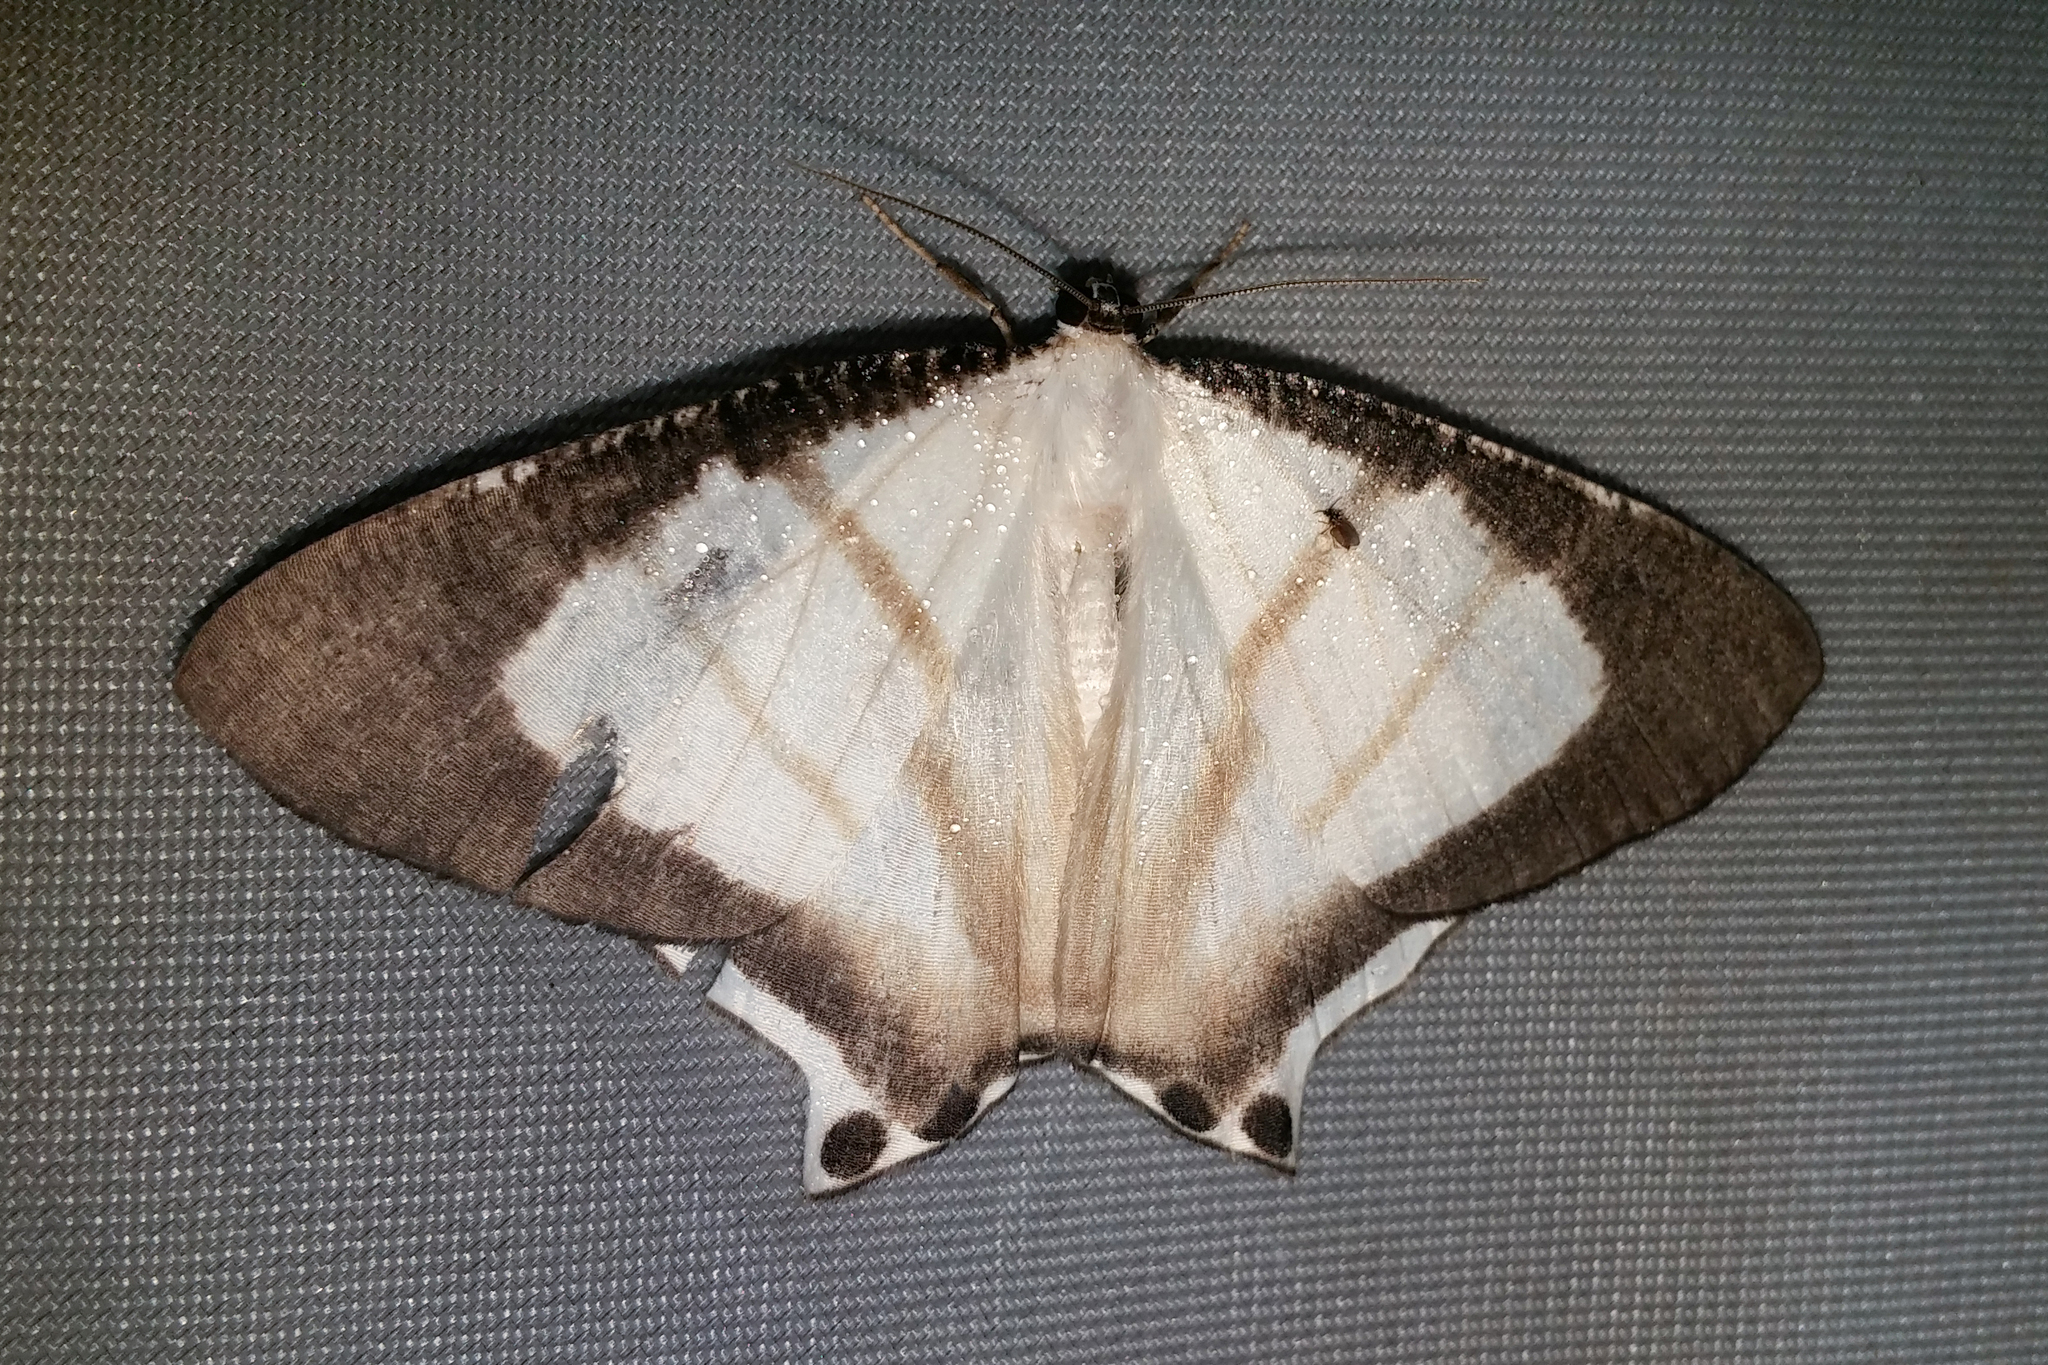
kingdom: Animalia
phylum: Arthropoda
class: Insecta
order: Lepidoptera
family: Uraniidae
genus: Cyphura
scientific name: Cyphura semiobsoleta
